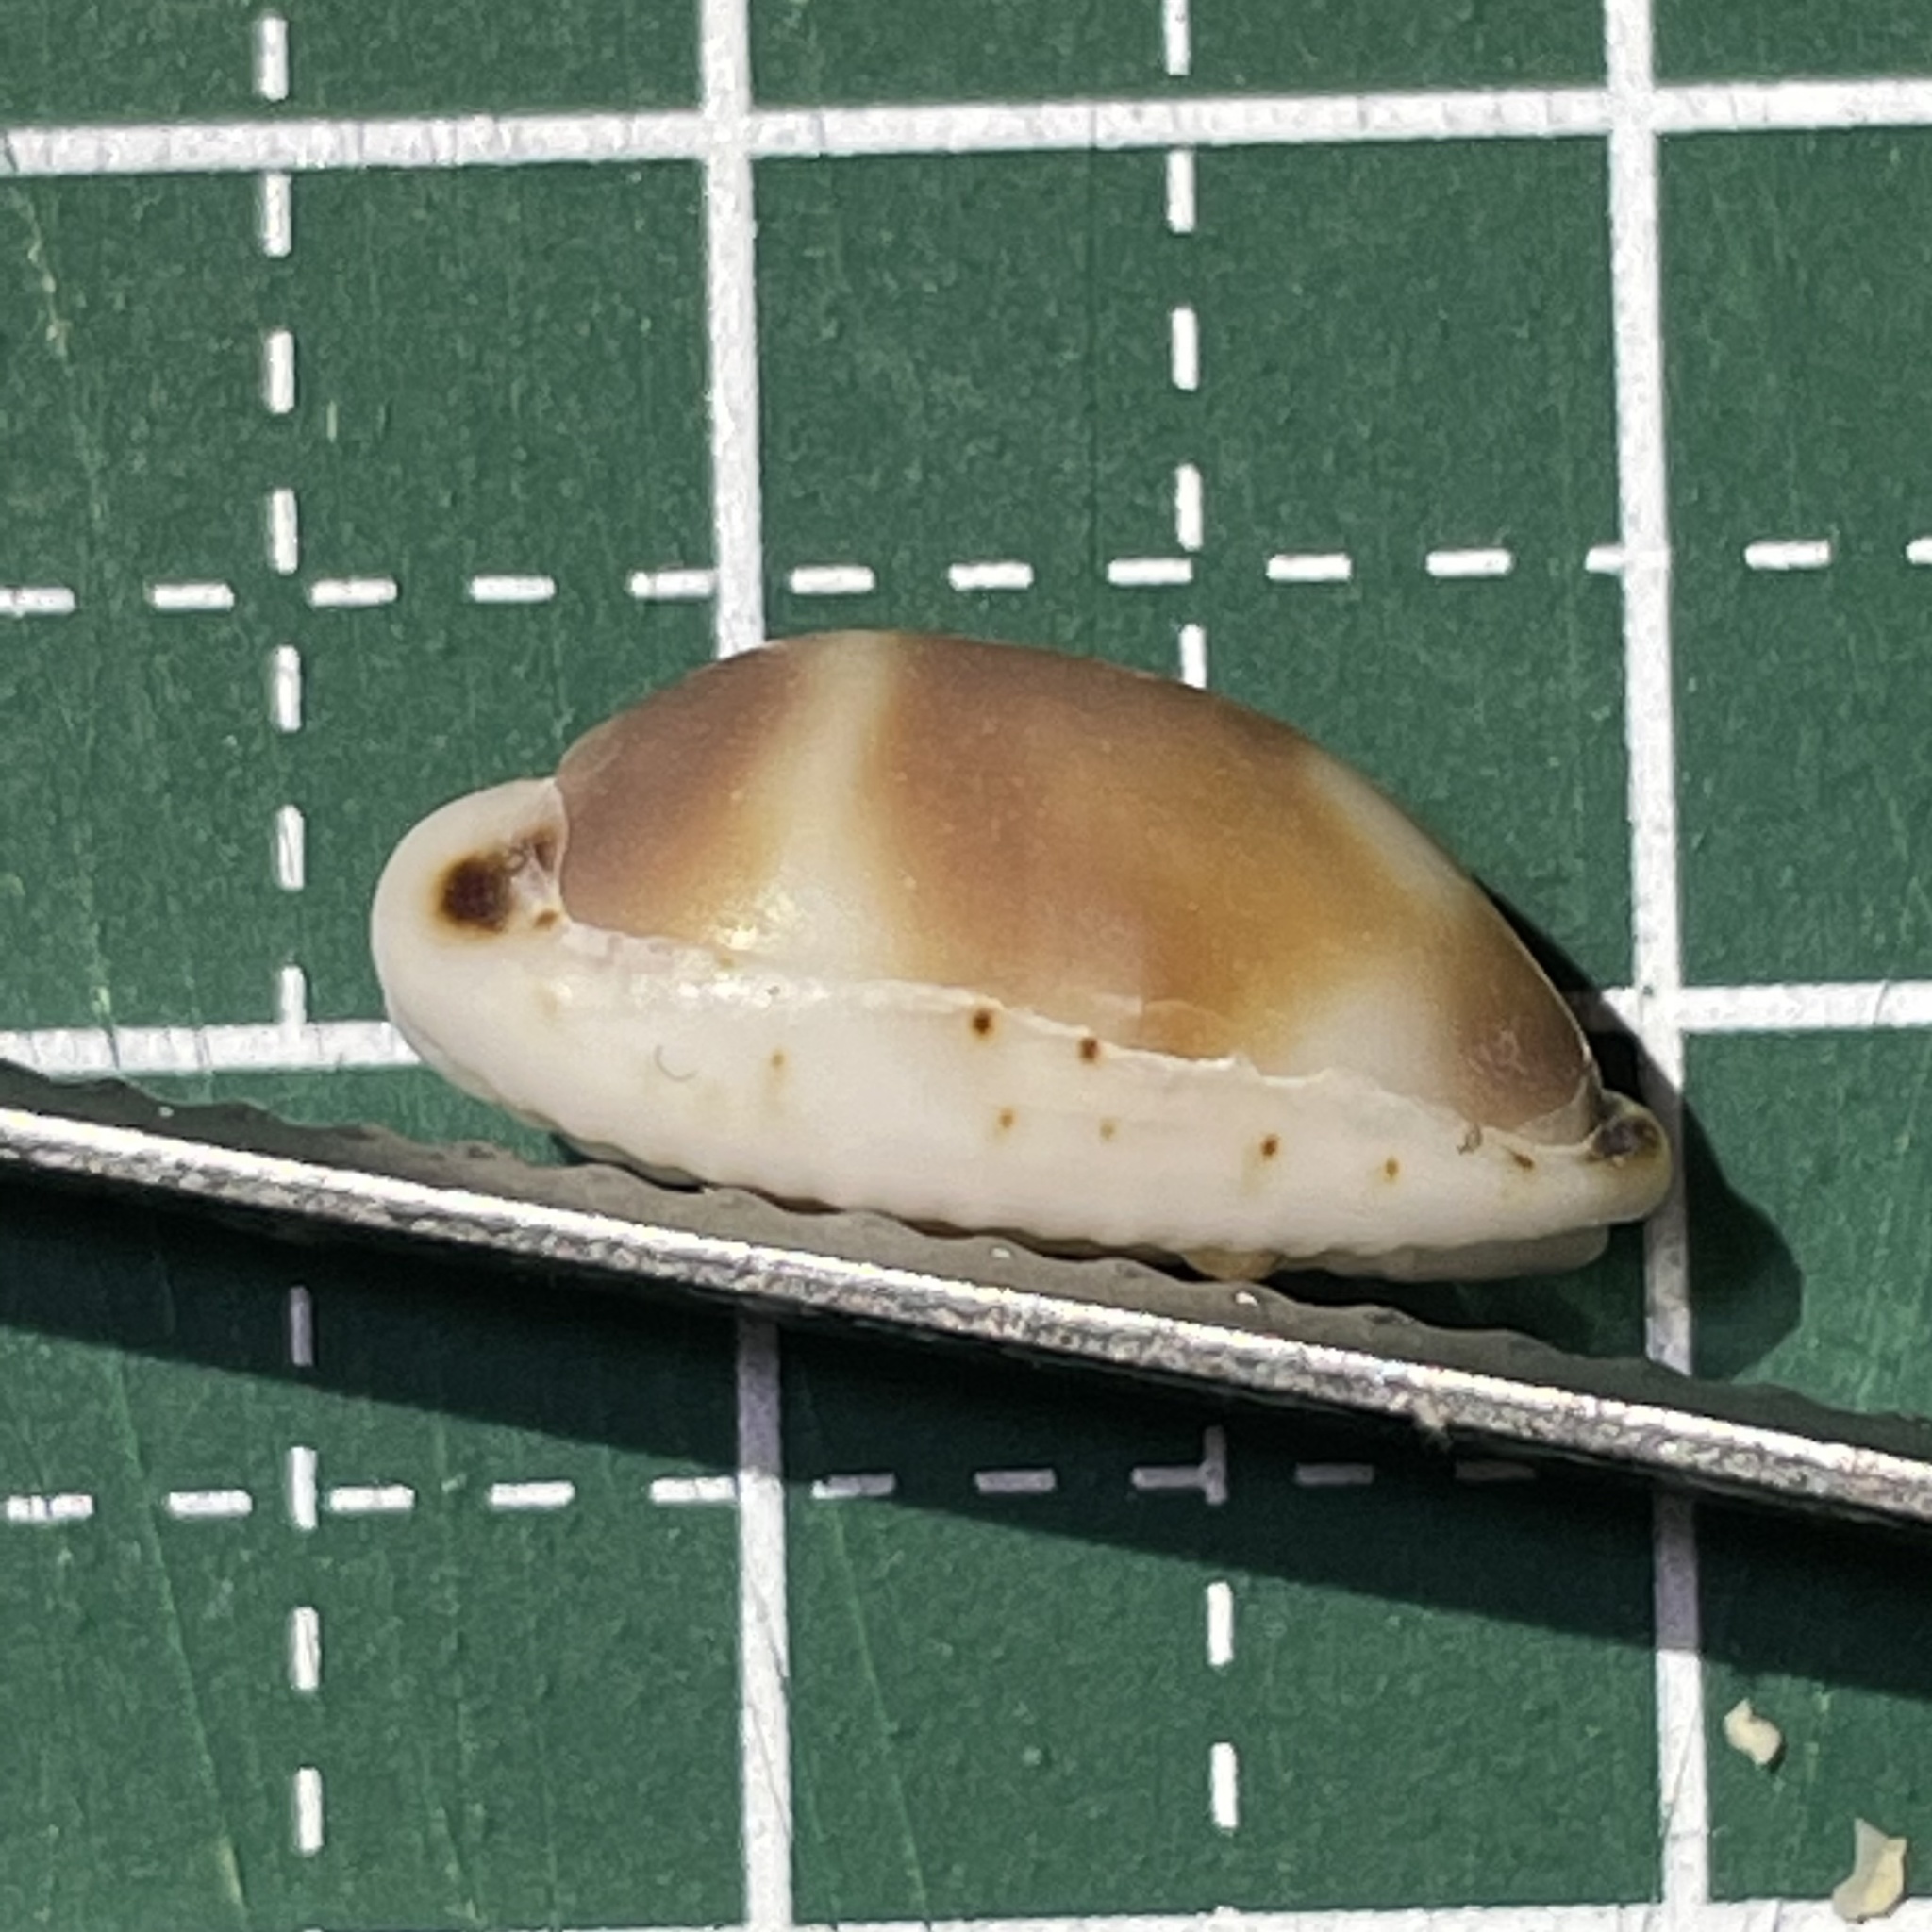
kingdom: Animalia
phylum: Mollusca
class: Gastropoda
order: Littorinimorpha
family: Cypraeidae
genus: Bistolida
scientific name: Bistolida hirundo
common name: Cowrie
